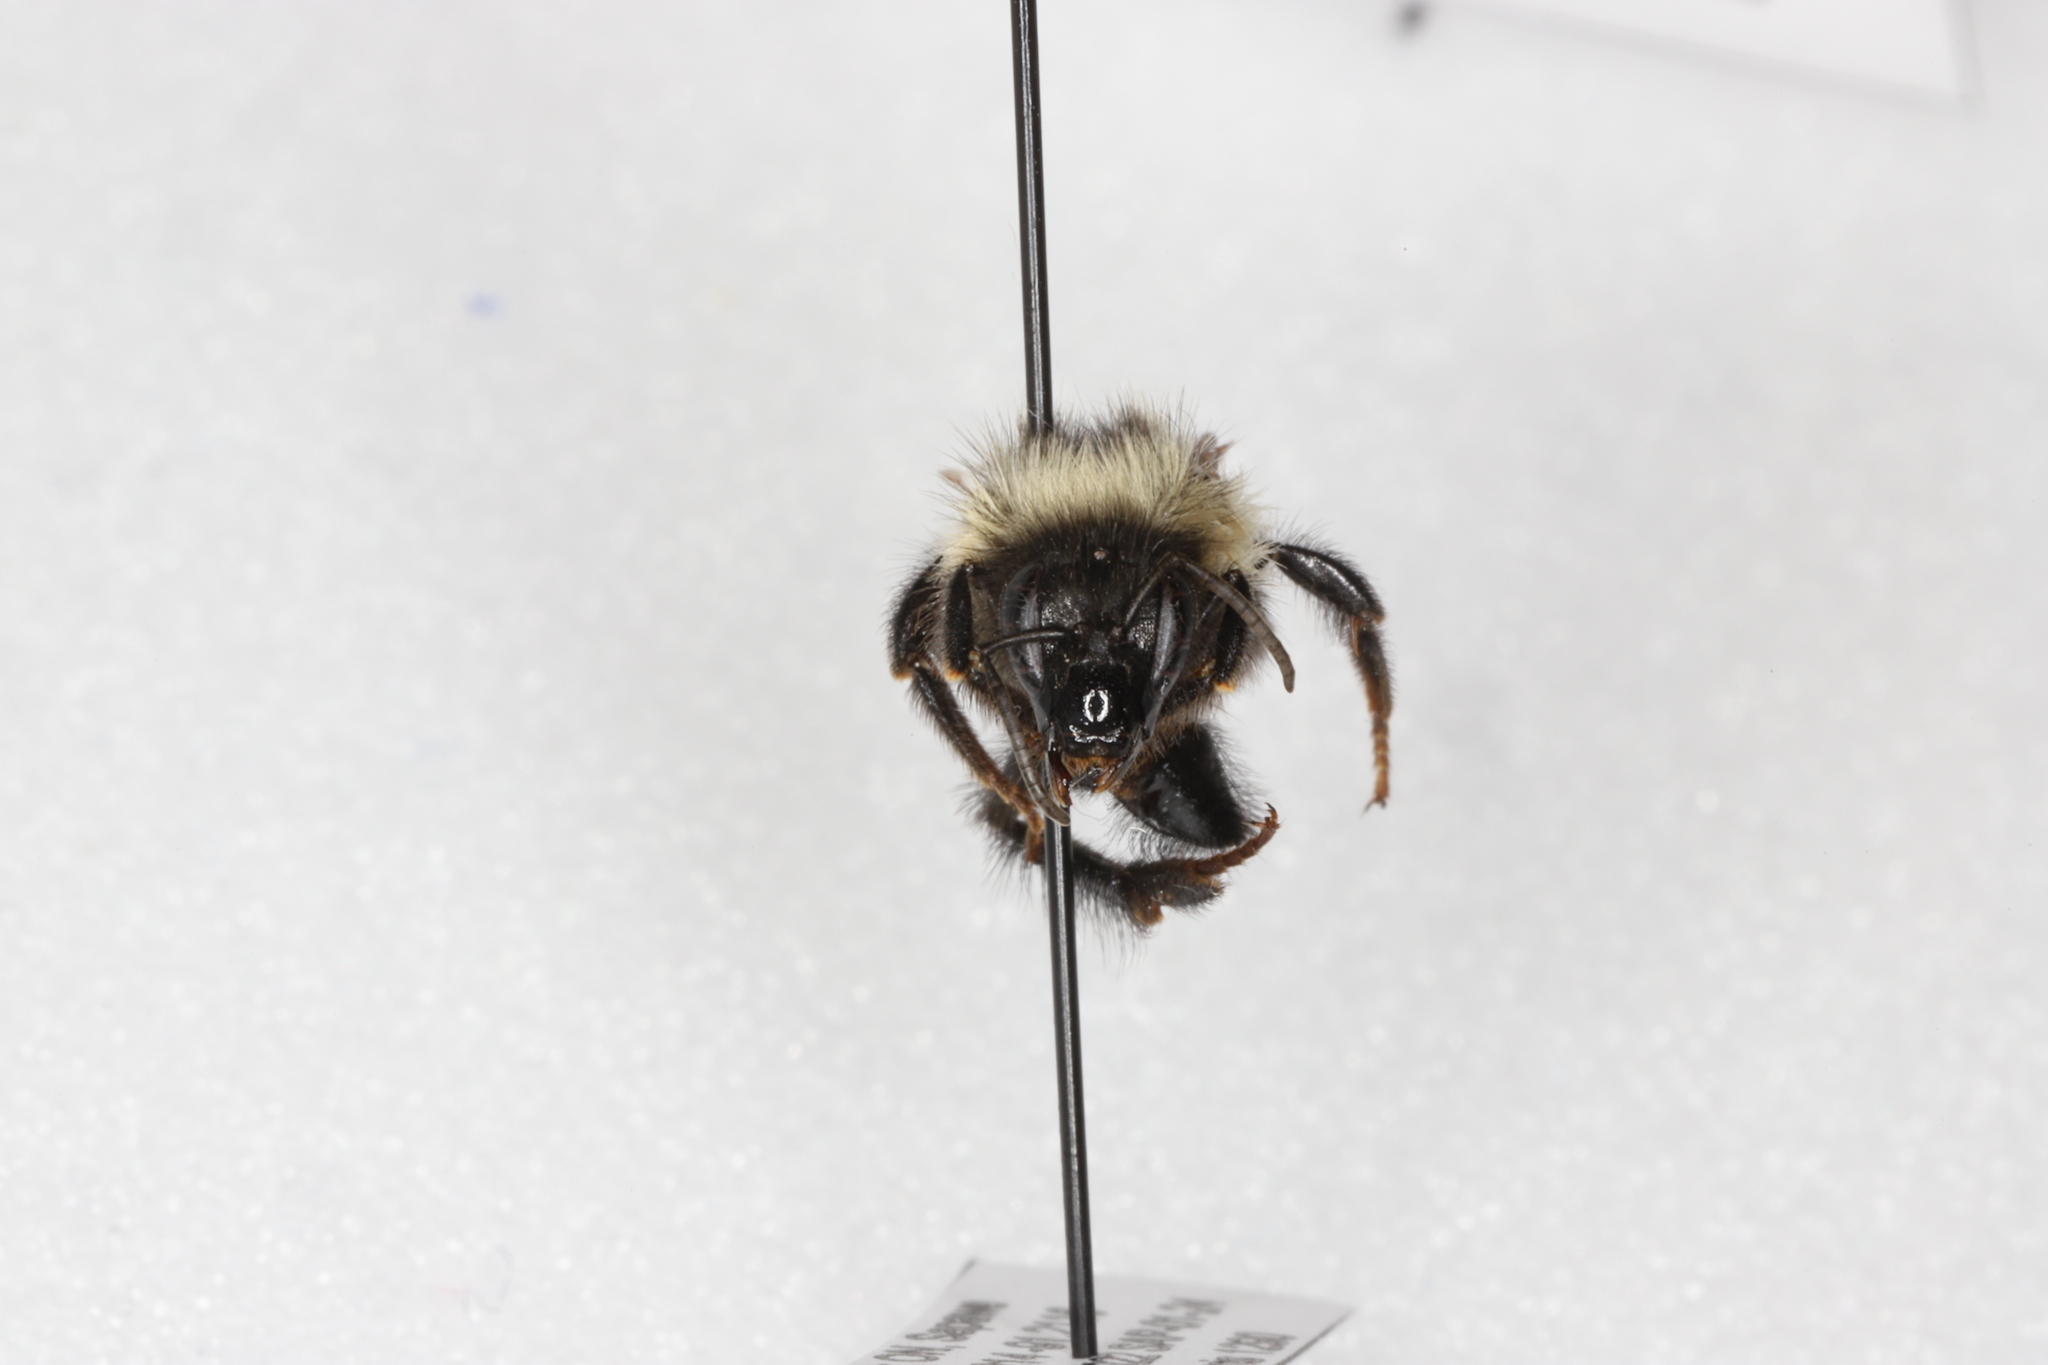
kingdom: Animalia
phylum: Arthropoda
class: Insecta
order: Hymenoptera
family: Apidae
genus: Bombus
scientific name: Bombus vagans
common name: Half-black bumble bee
